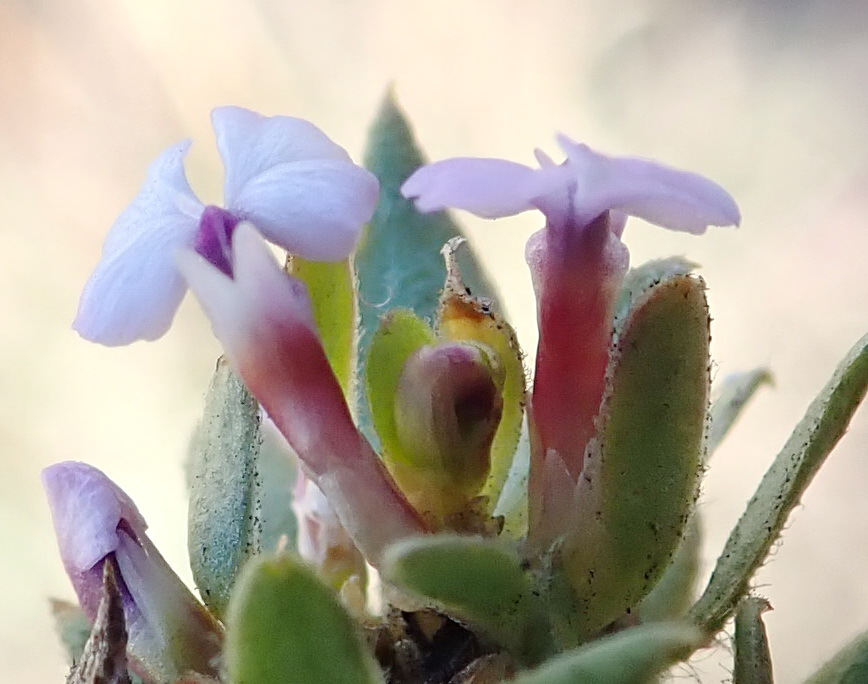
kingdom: Plantae
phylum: Tracheophyta
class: Magnoliopsida
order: Fabales
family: Polygalaceae
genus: Muraltia
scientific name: Muraltia alopecuroides
